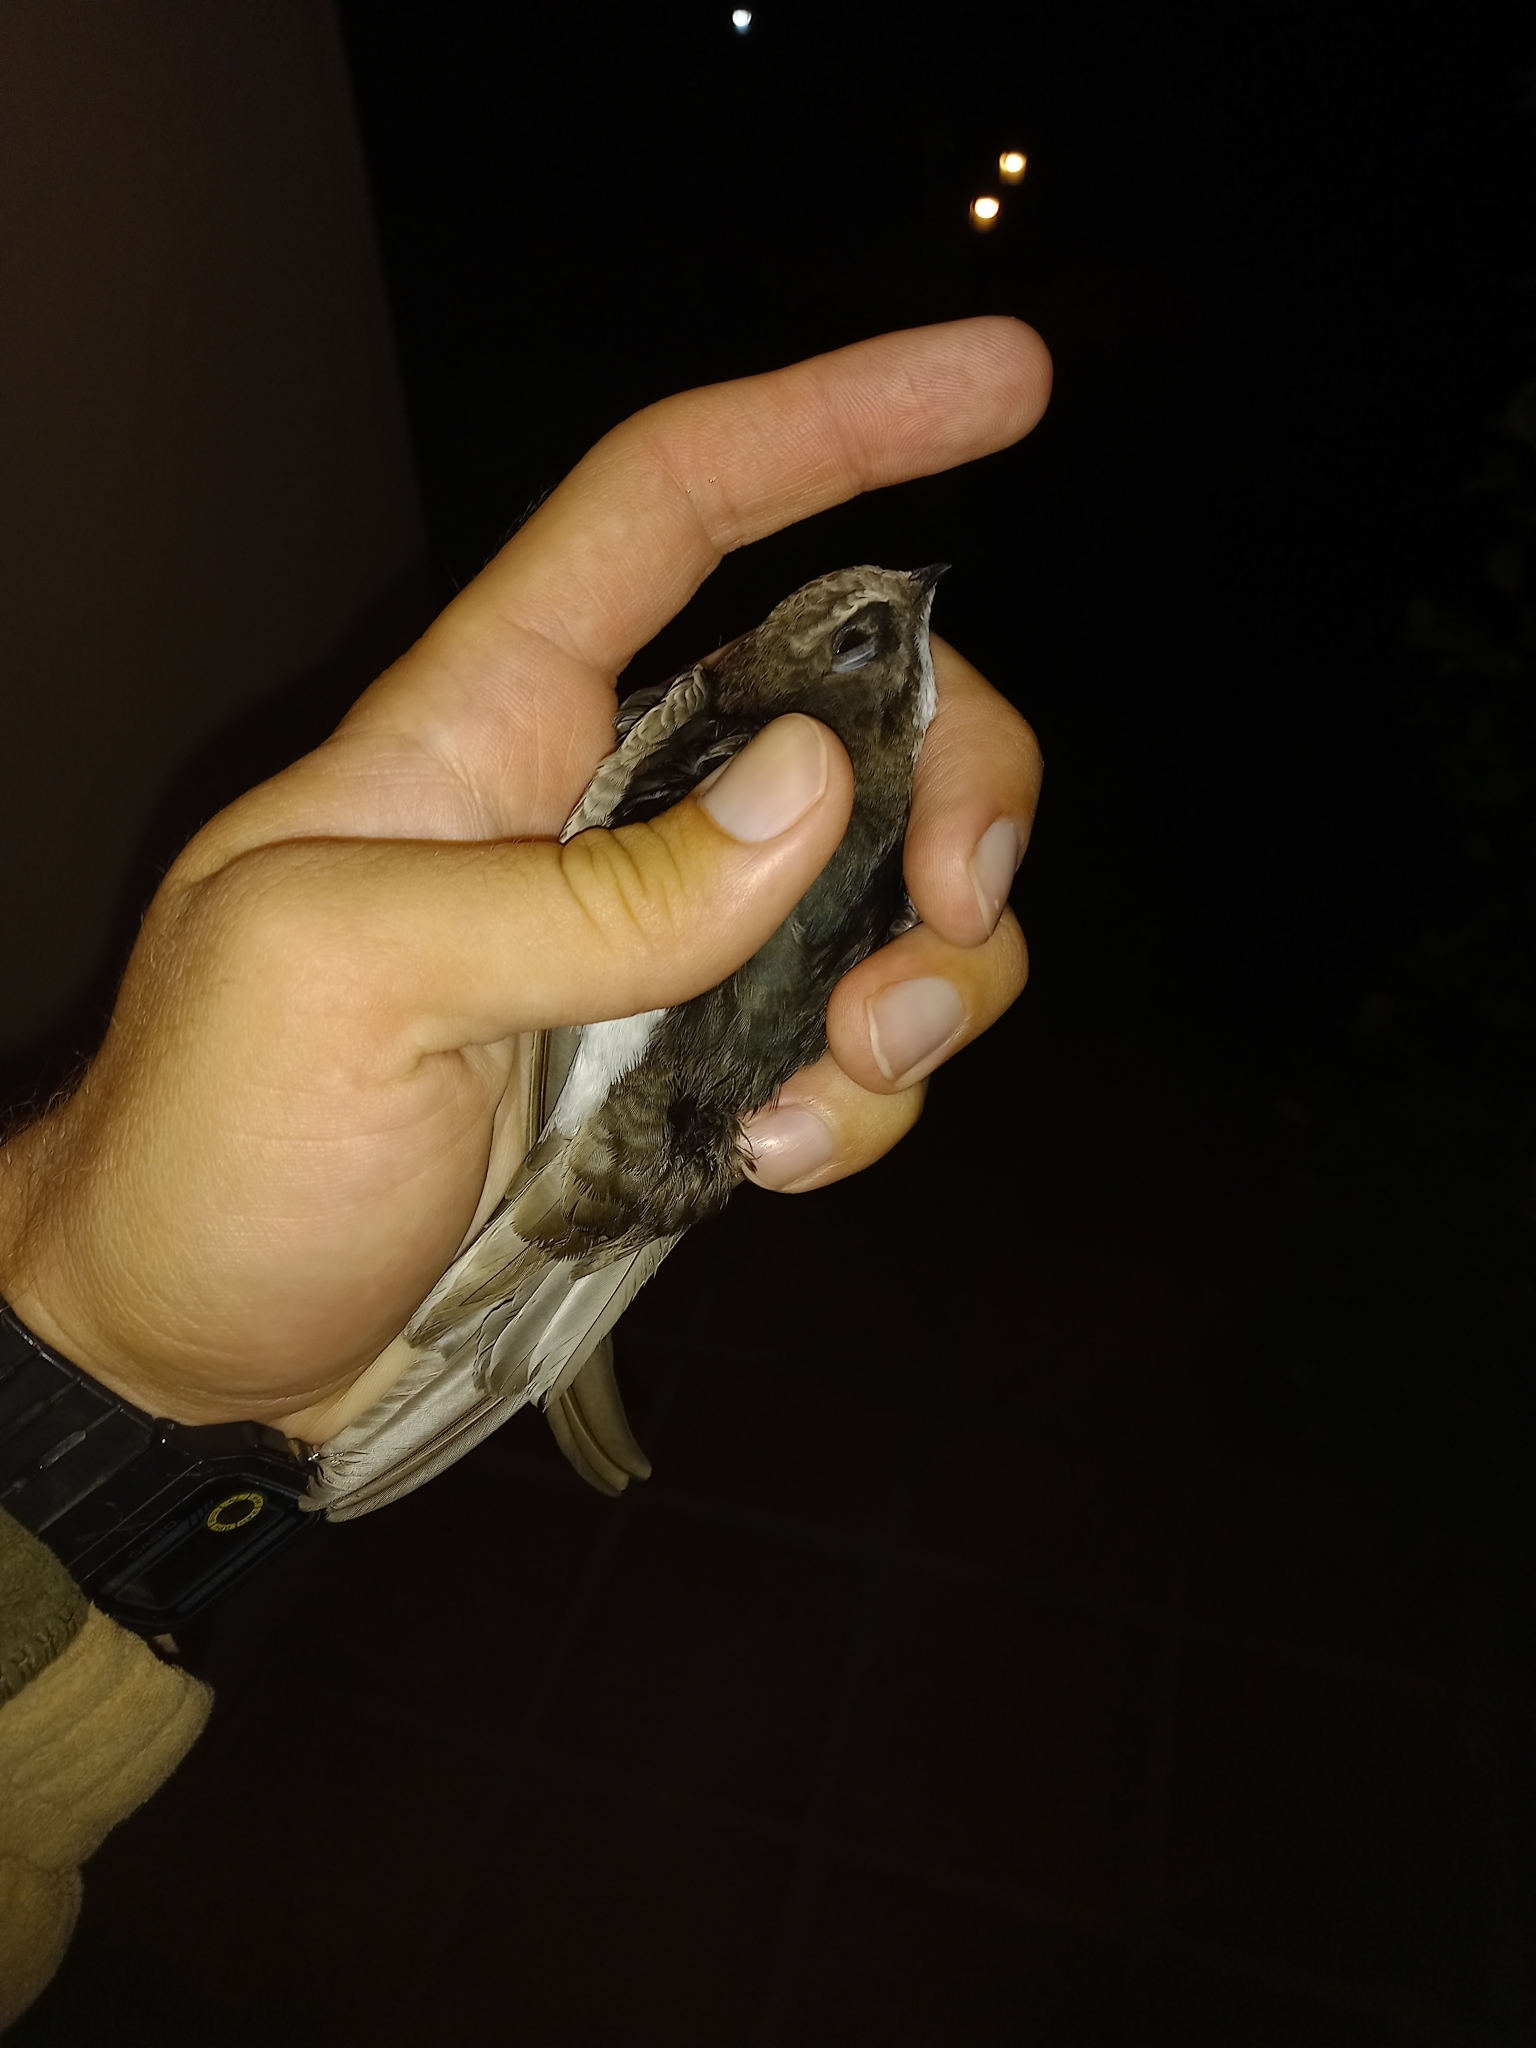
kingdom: Animalia
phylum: Chordata
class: Aves
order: Apodiformes
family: Apodidae
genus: Apus
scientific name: Apus affinis
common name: Little swift
